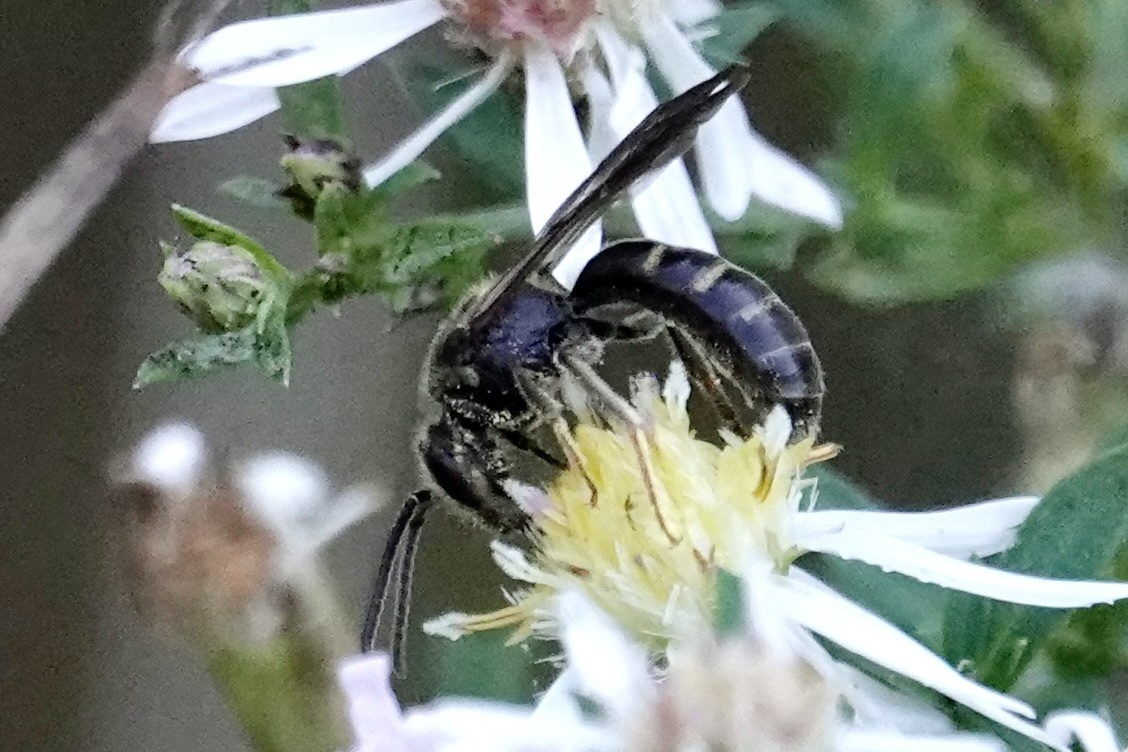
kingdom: Animalia
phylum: Arthropoda
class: Insecta
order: Hymenoptera
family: Halictidae
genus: Lasioglossum
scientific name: Lasioglossum fuscipenne
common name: Brown-winged sweat bee
